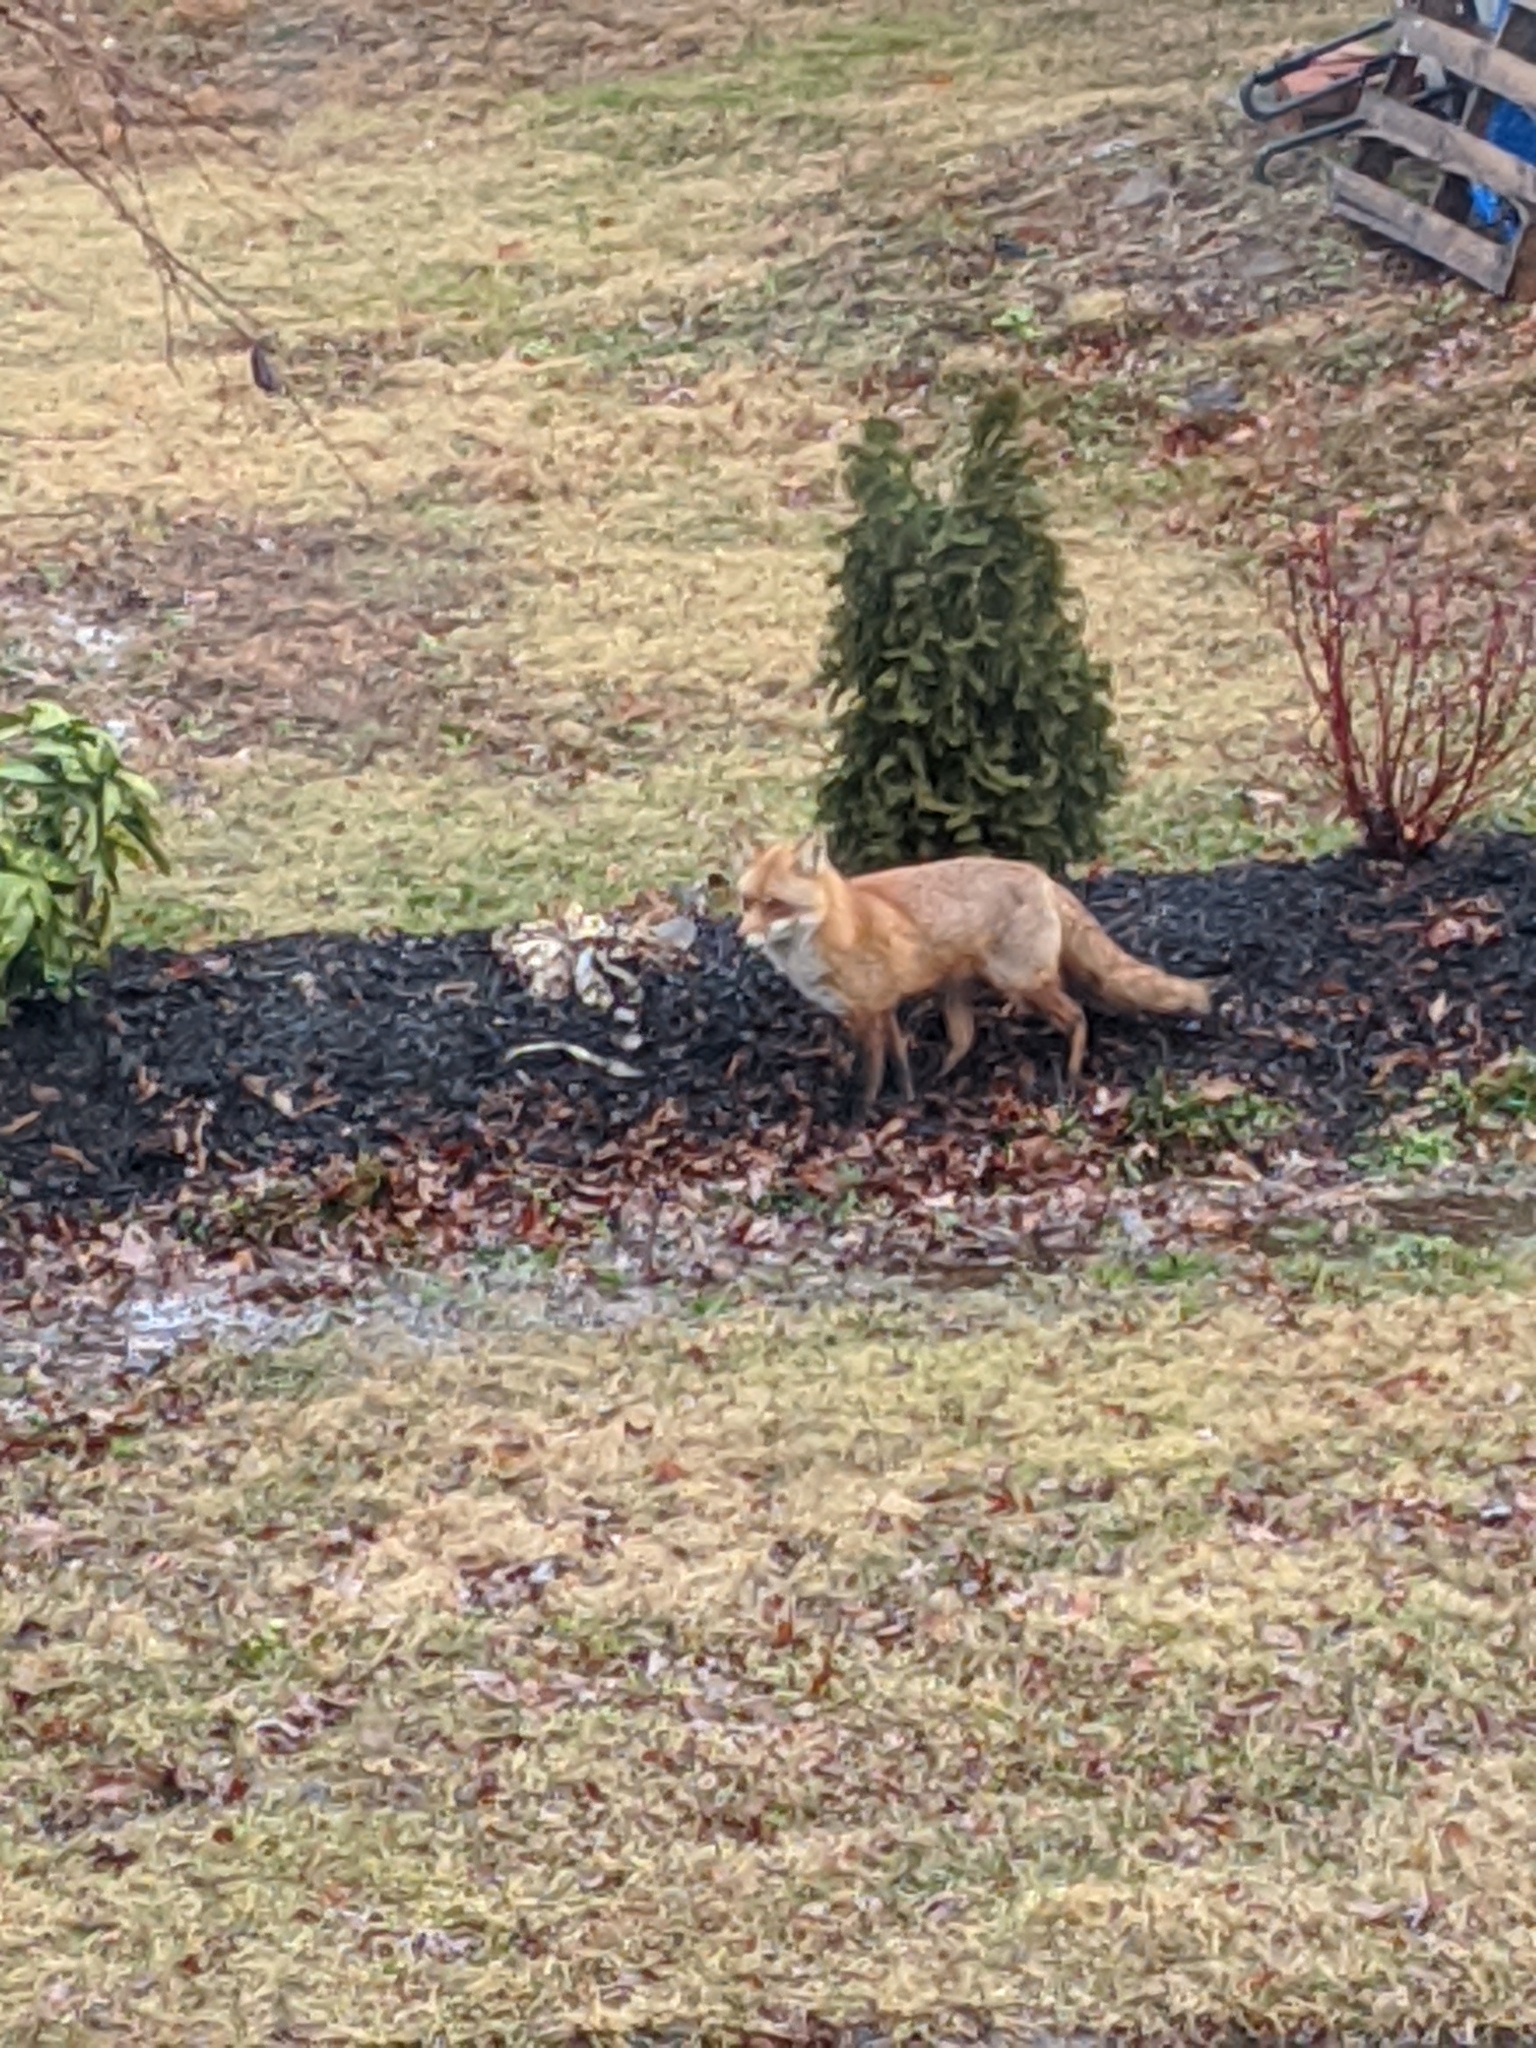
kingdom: Animalia
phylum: Chordata
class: Mammalia
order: Carnivora
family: Canidae
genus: Vulpes
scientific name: Vulpes vulpes
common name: Red fox
